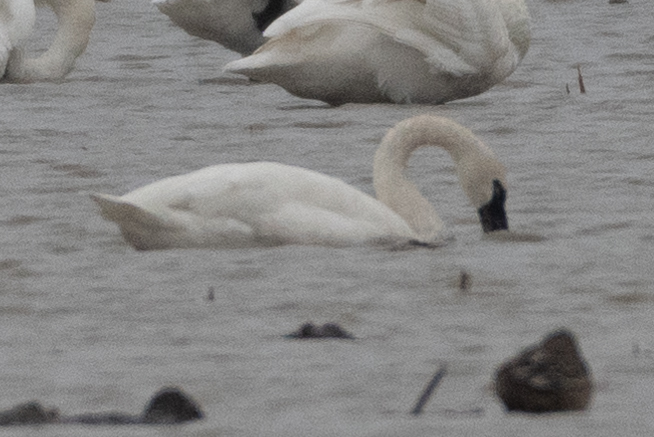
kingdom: Animalia
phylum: Chordata
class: Aves
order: Anseriformes
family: Anatidae
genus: Cygnus
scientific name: Cygnus columbianus
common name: Tundra swan
